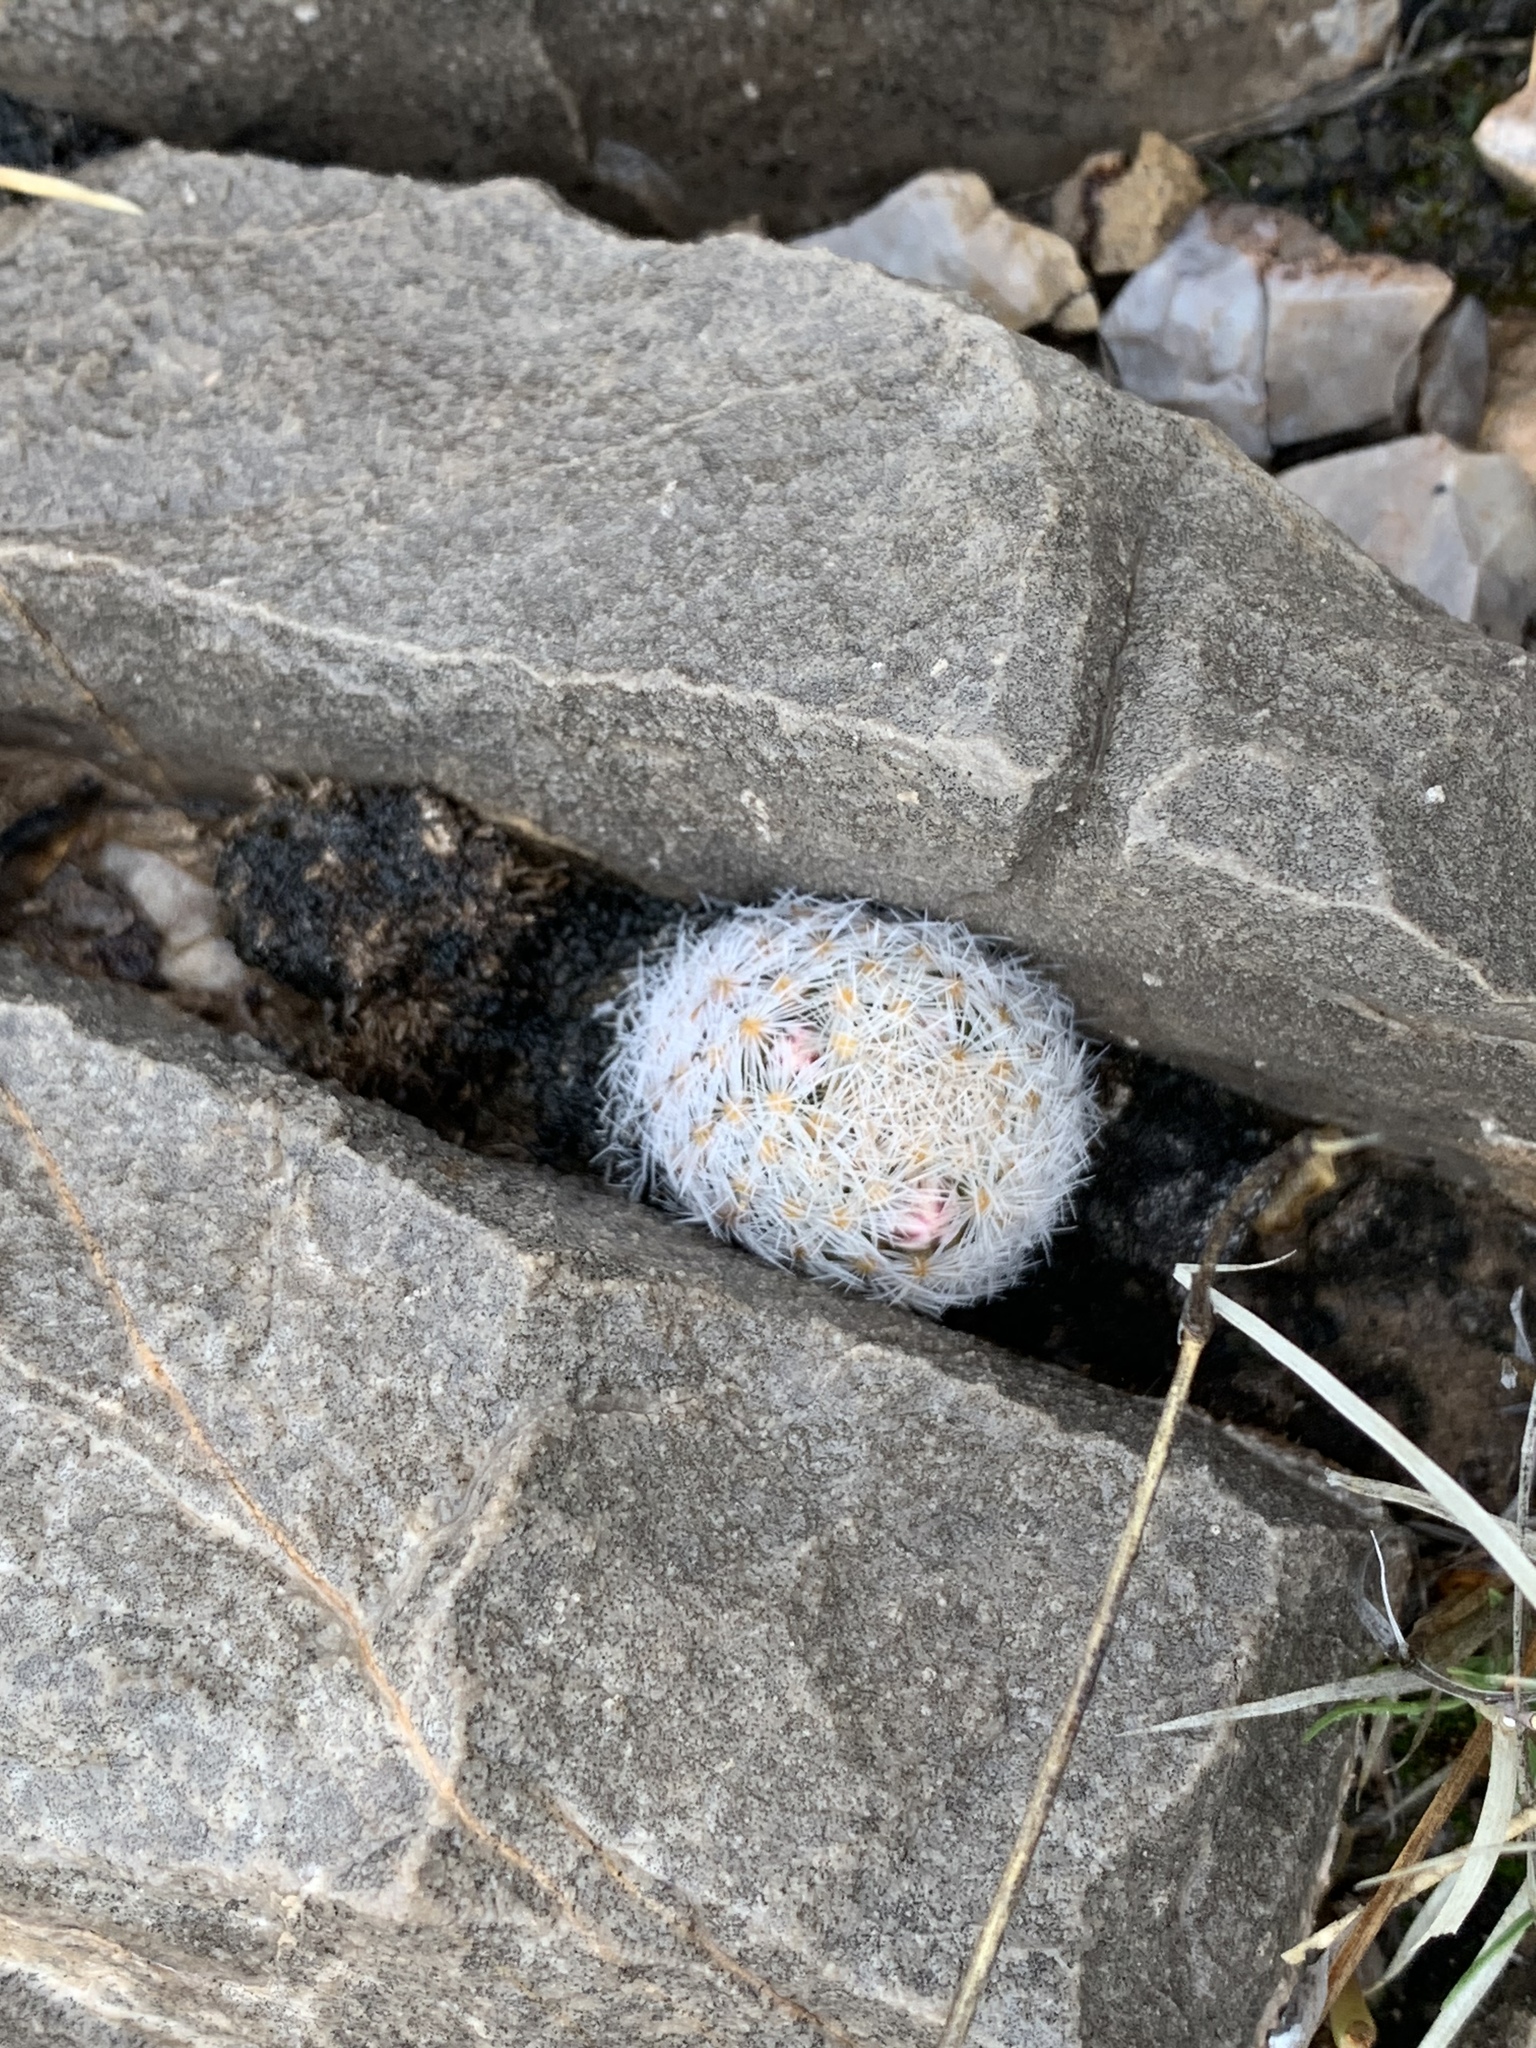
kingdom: Plantae
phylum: Tracheophyta
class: Magnoliopsida
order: Caryophyllales
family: Cactaceae
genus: Mammillaria
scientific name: Mammillaria lasiacantha
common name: Lace-spine nipple cactus
